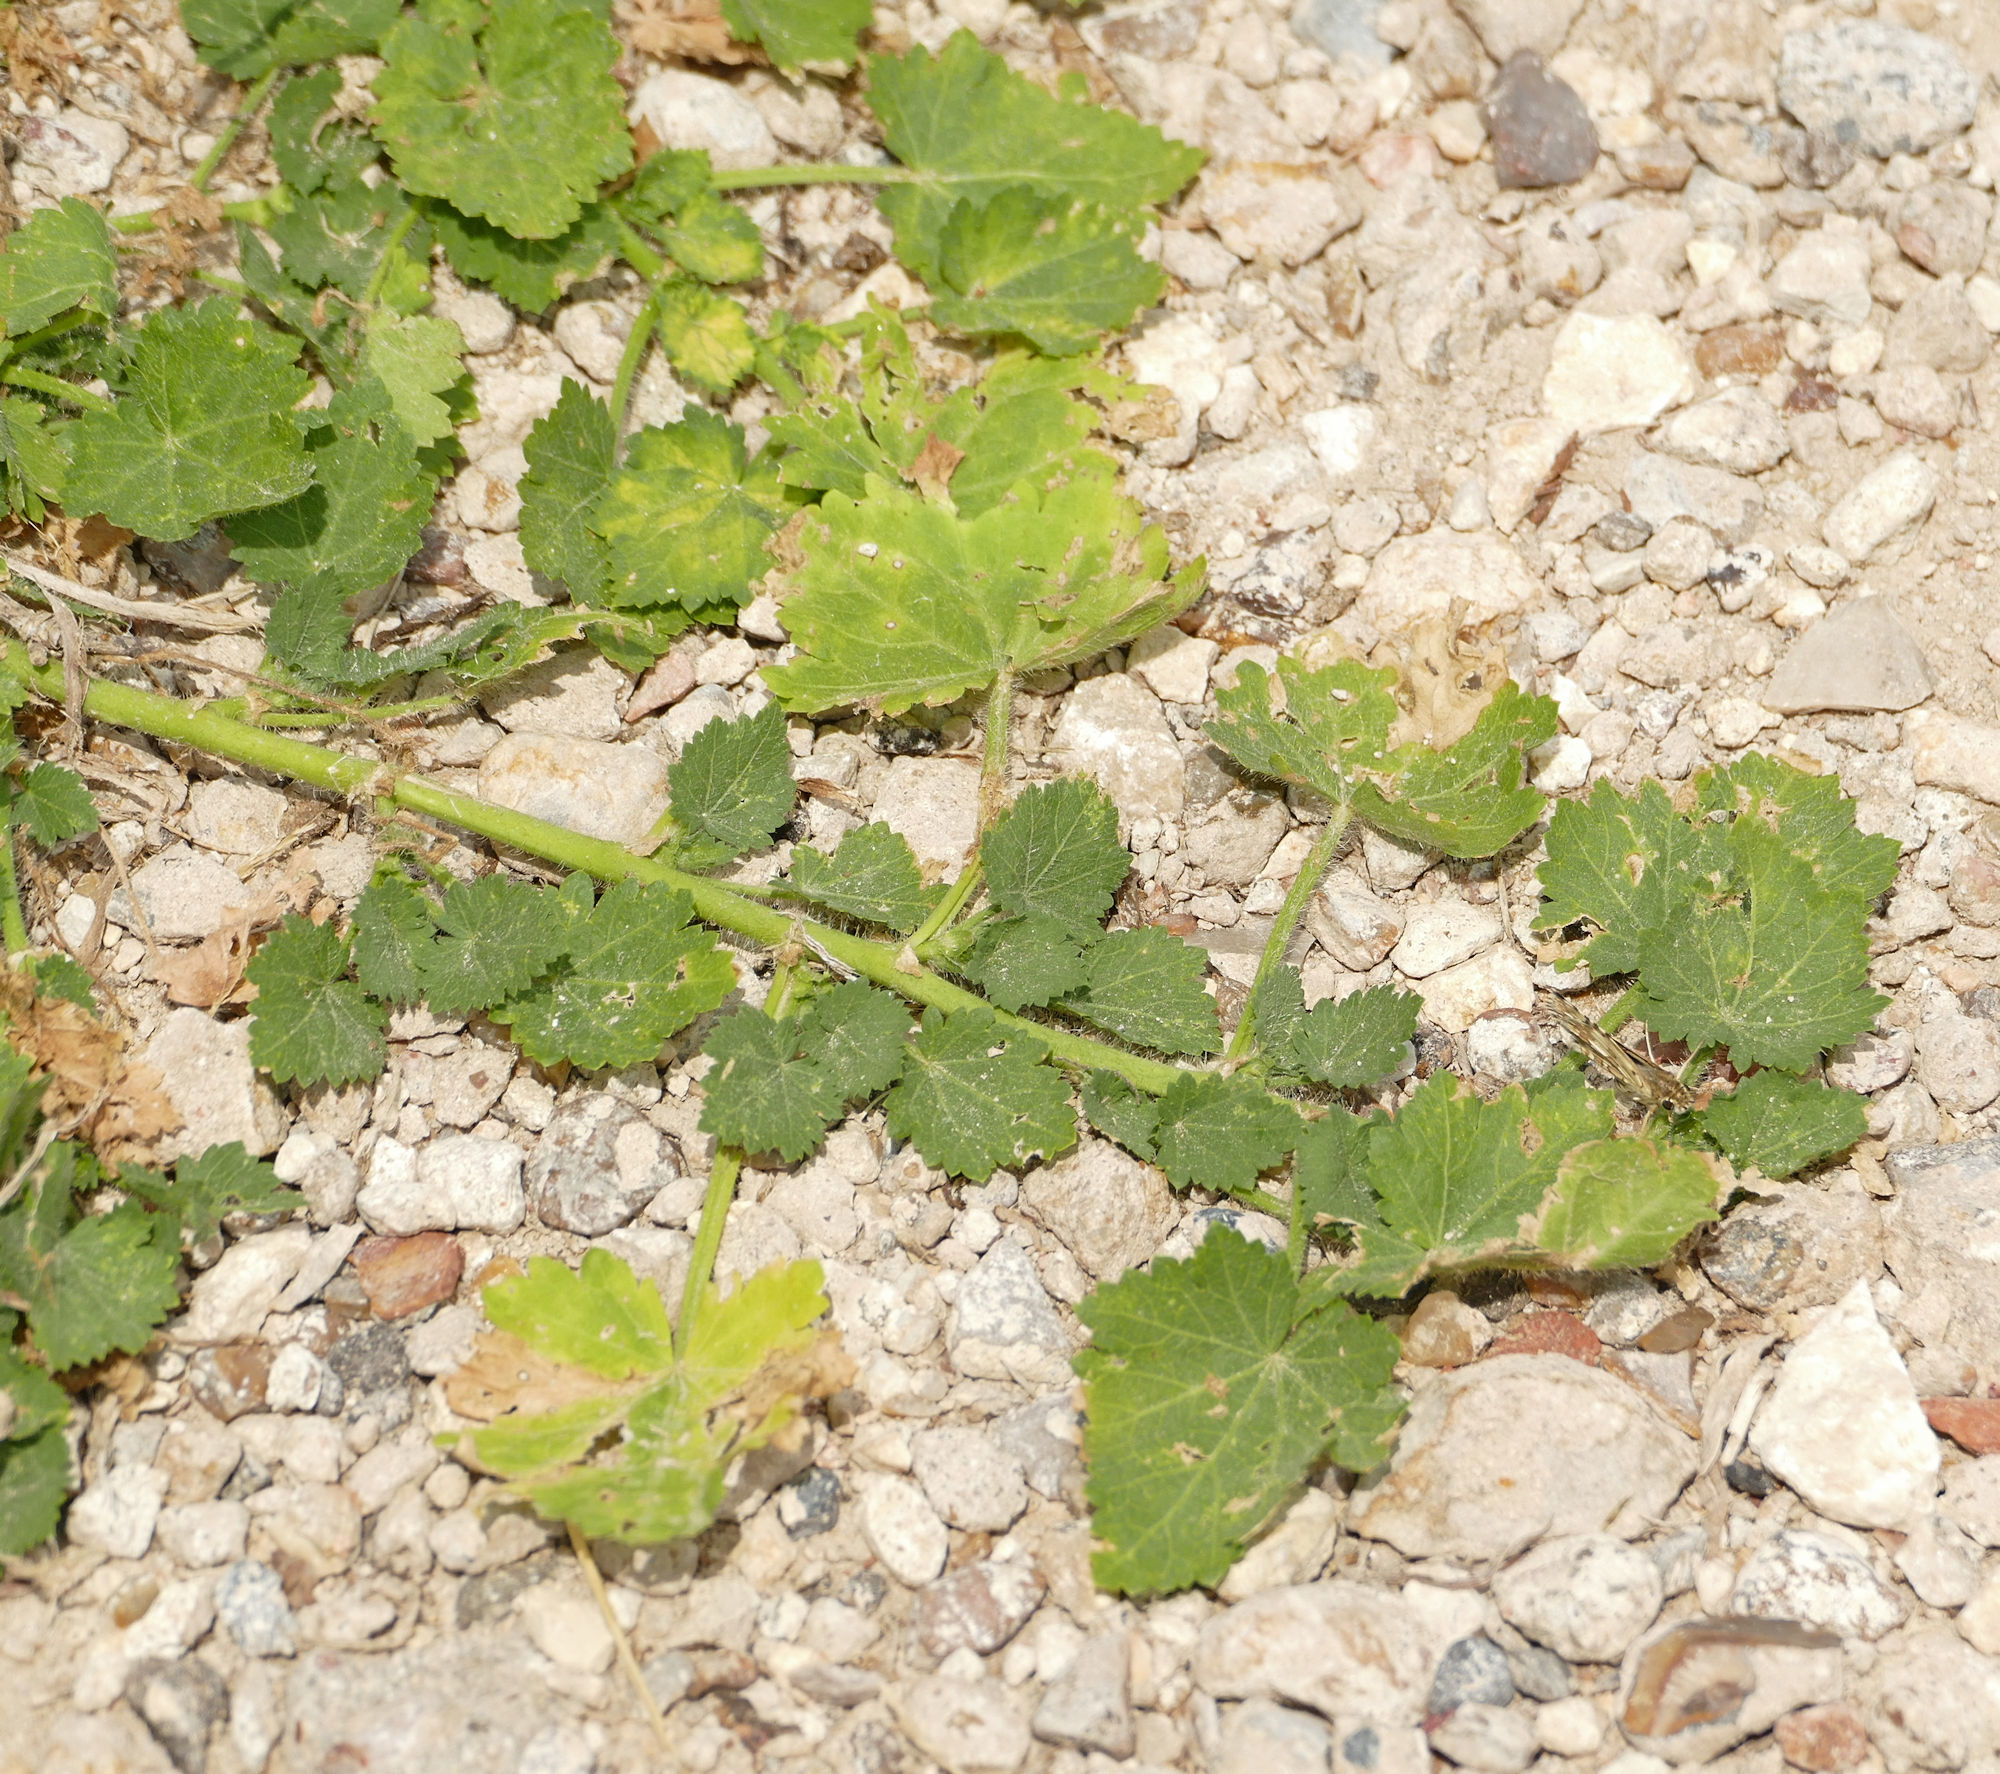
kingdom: Plantae
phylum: Tracheophyta
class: Magnoliopsida
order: Malvales
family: Malvaceae
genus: Modiola
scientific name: Modiola caroliniana
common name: Carolina bristlemallow
